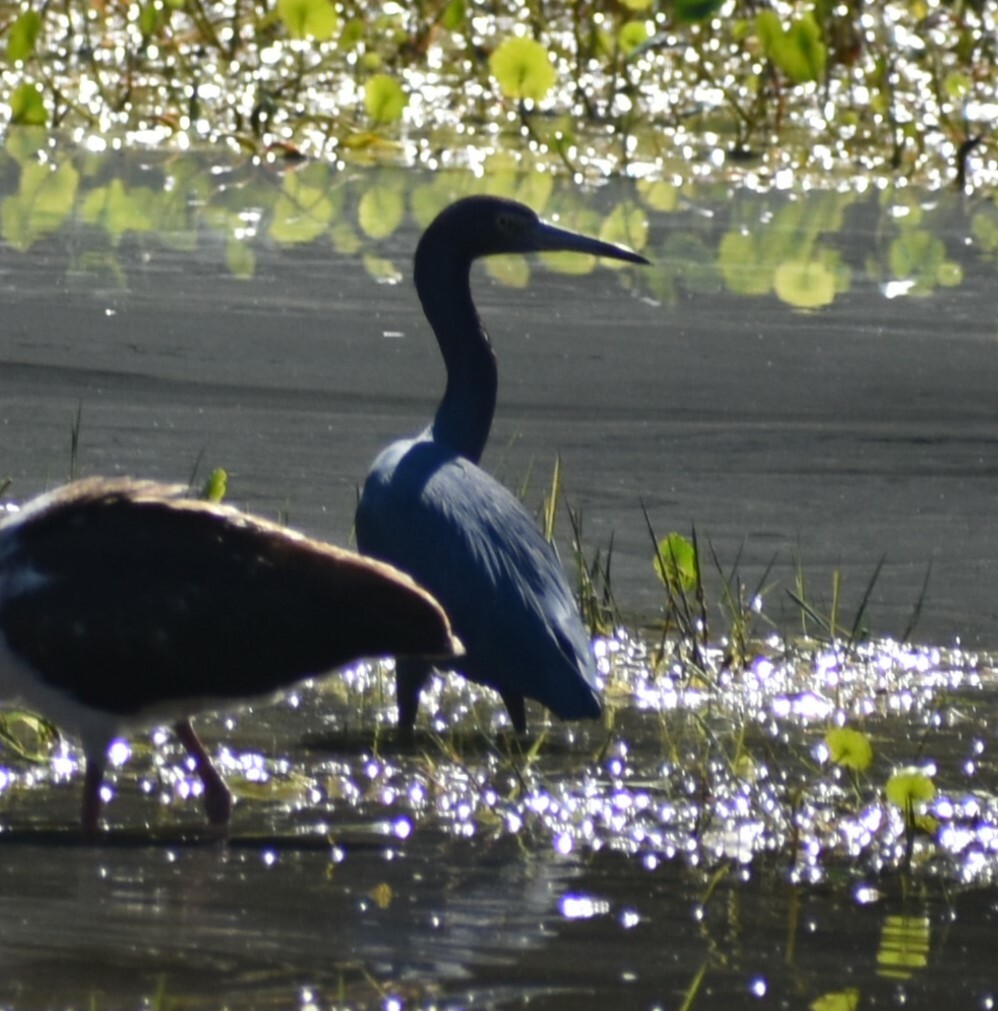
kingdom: Animalia
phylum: Chordata
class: Aves
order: Pelecaniformes
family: Ardeidae
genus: Egretta
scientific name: Egretta caerulea
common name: Little blue heron
